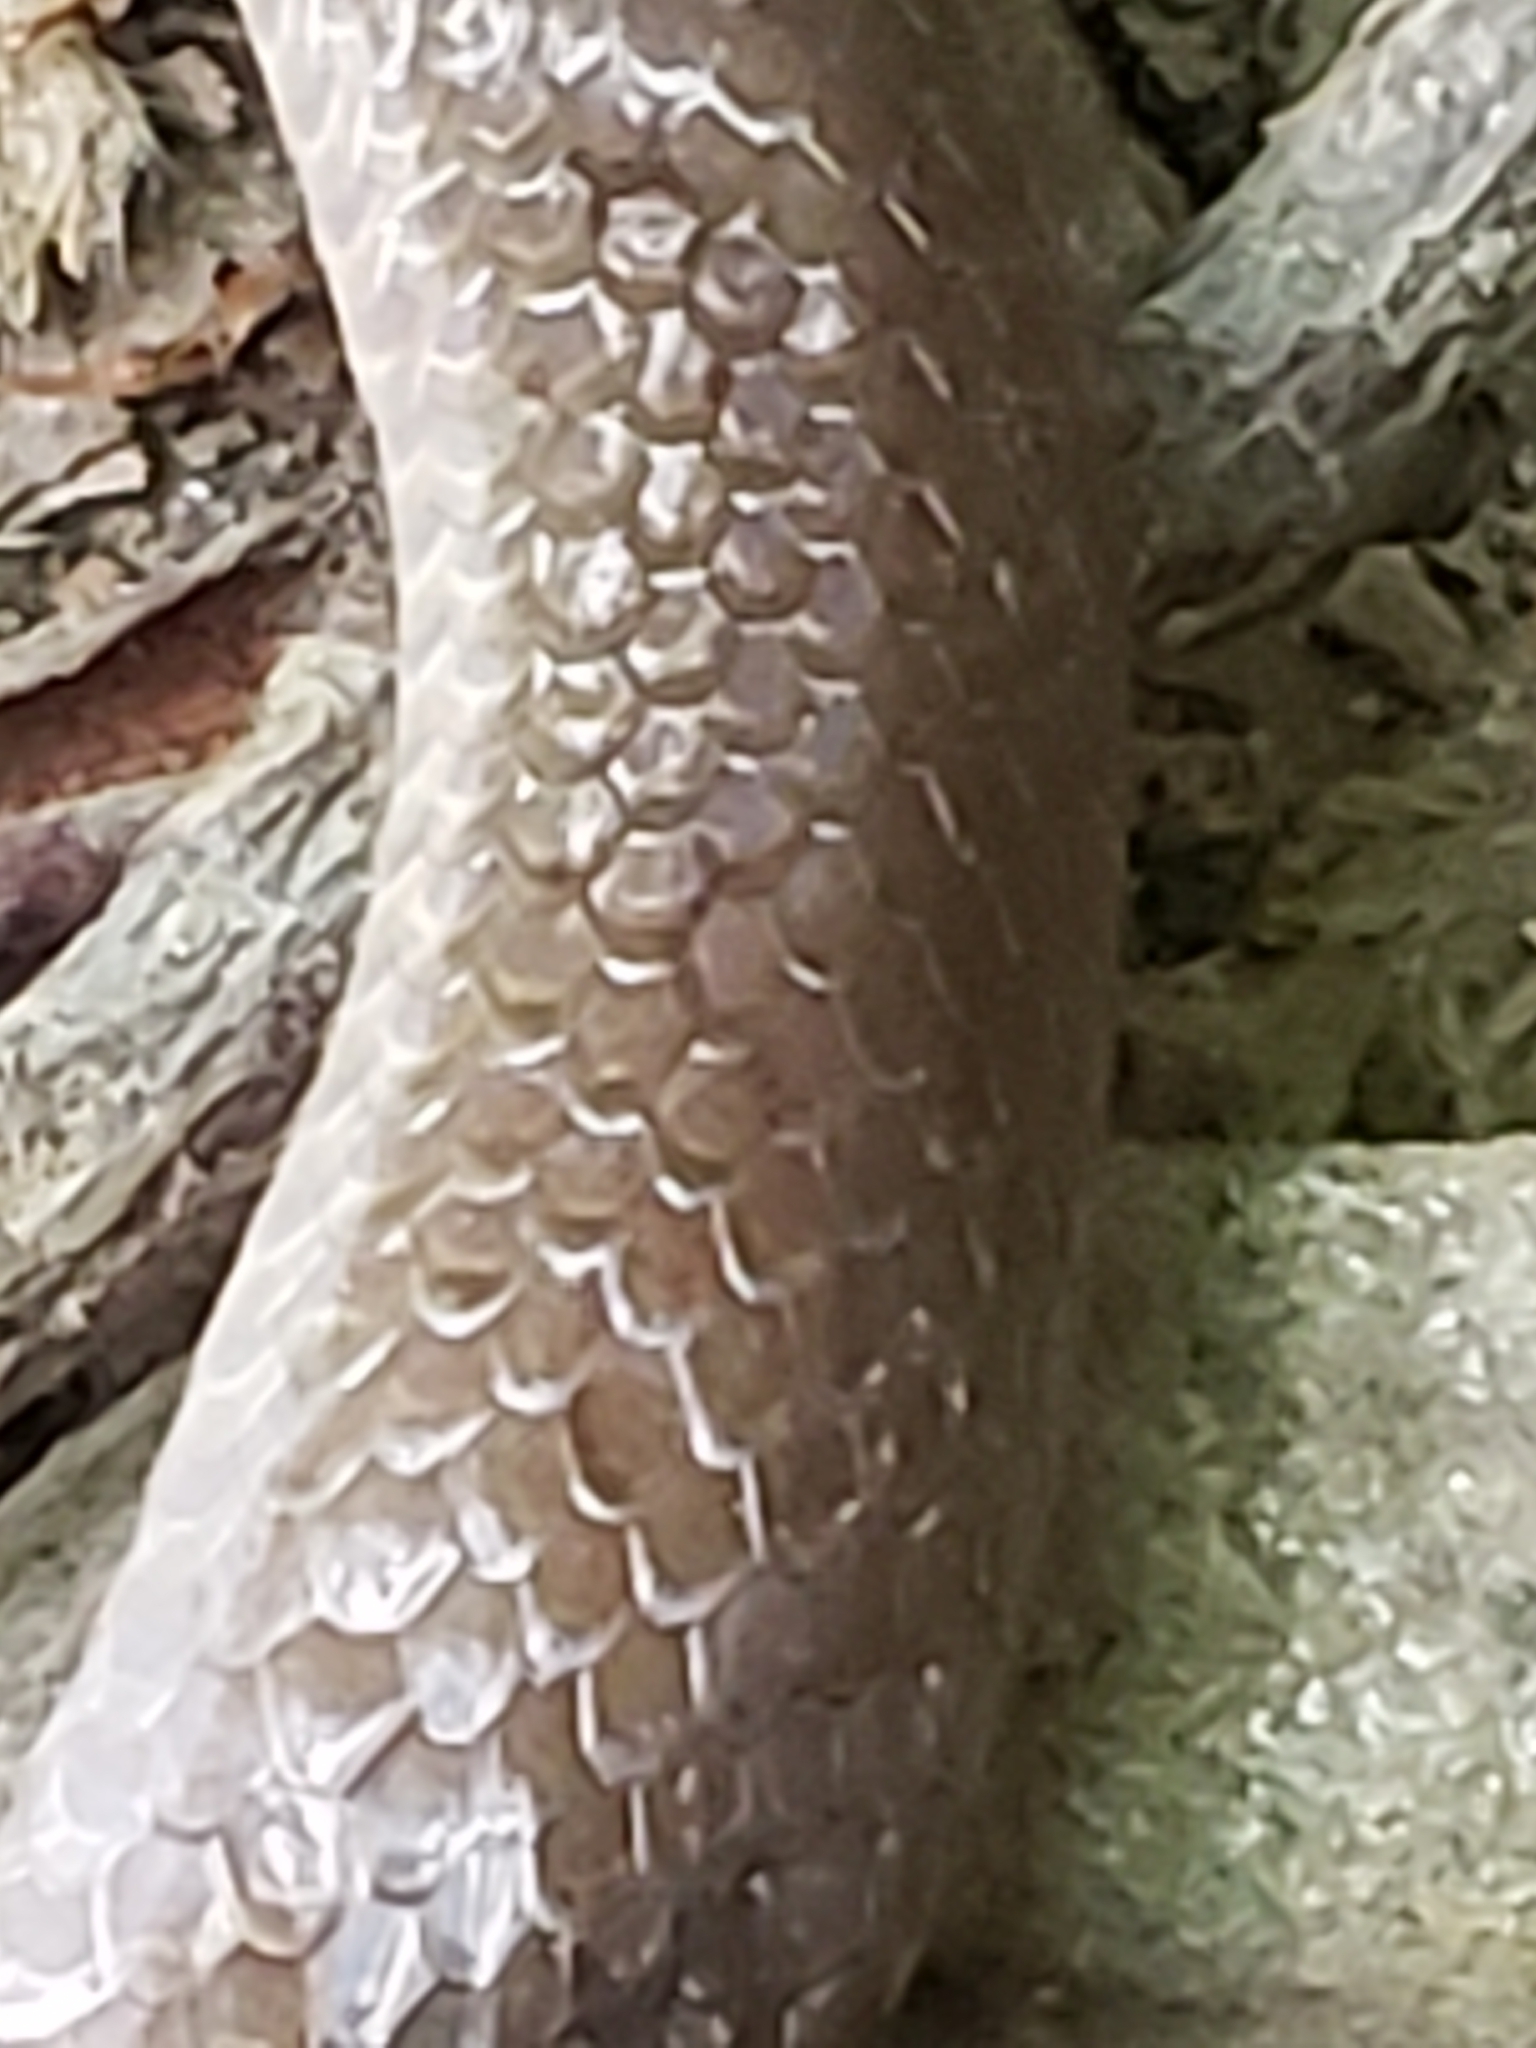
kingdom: Animalia
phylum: Chordata
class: Squamata
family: Colubridae
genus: Carphophis
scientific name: Carphophis amoenus
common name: Eastern worm snake
